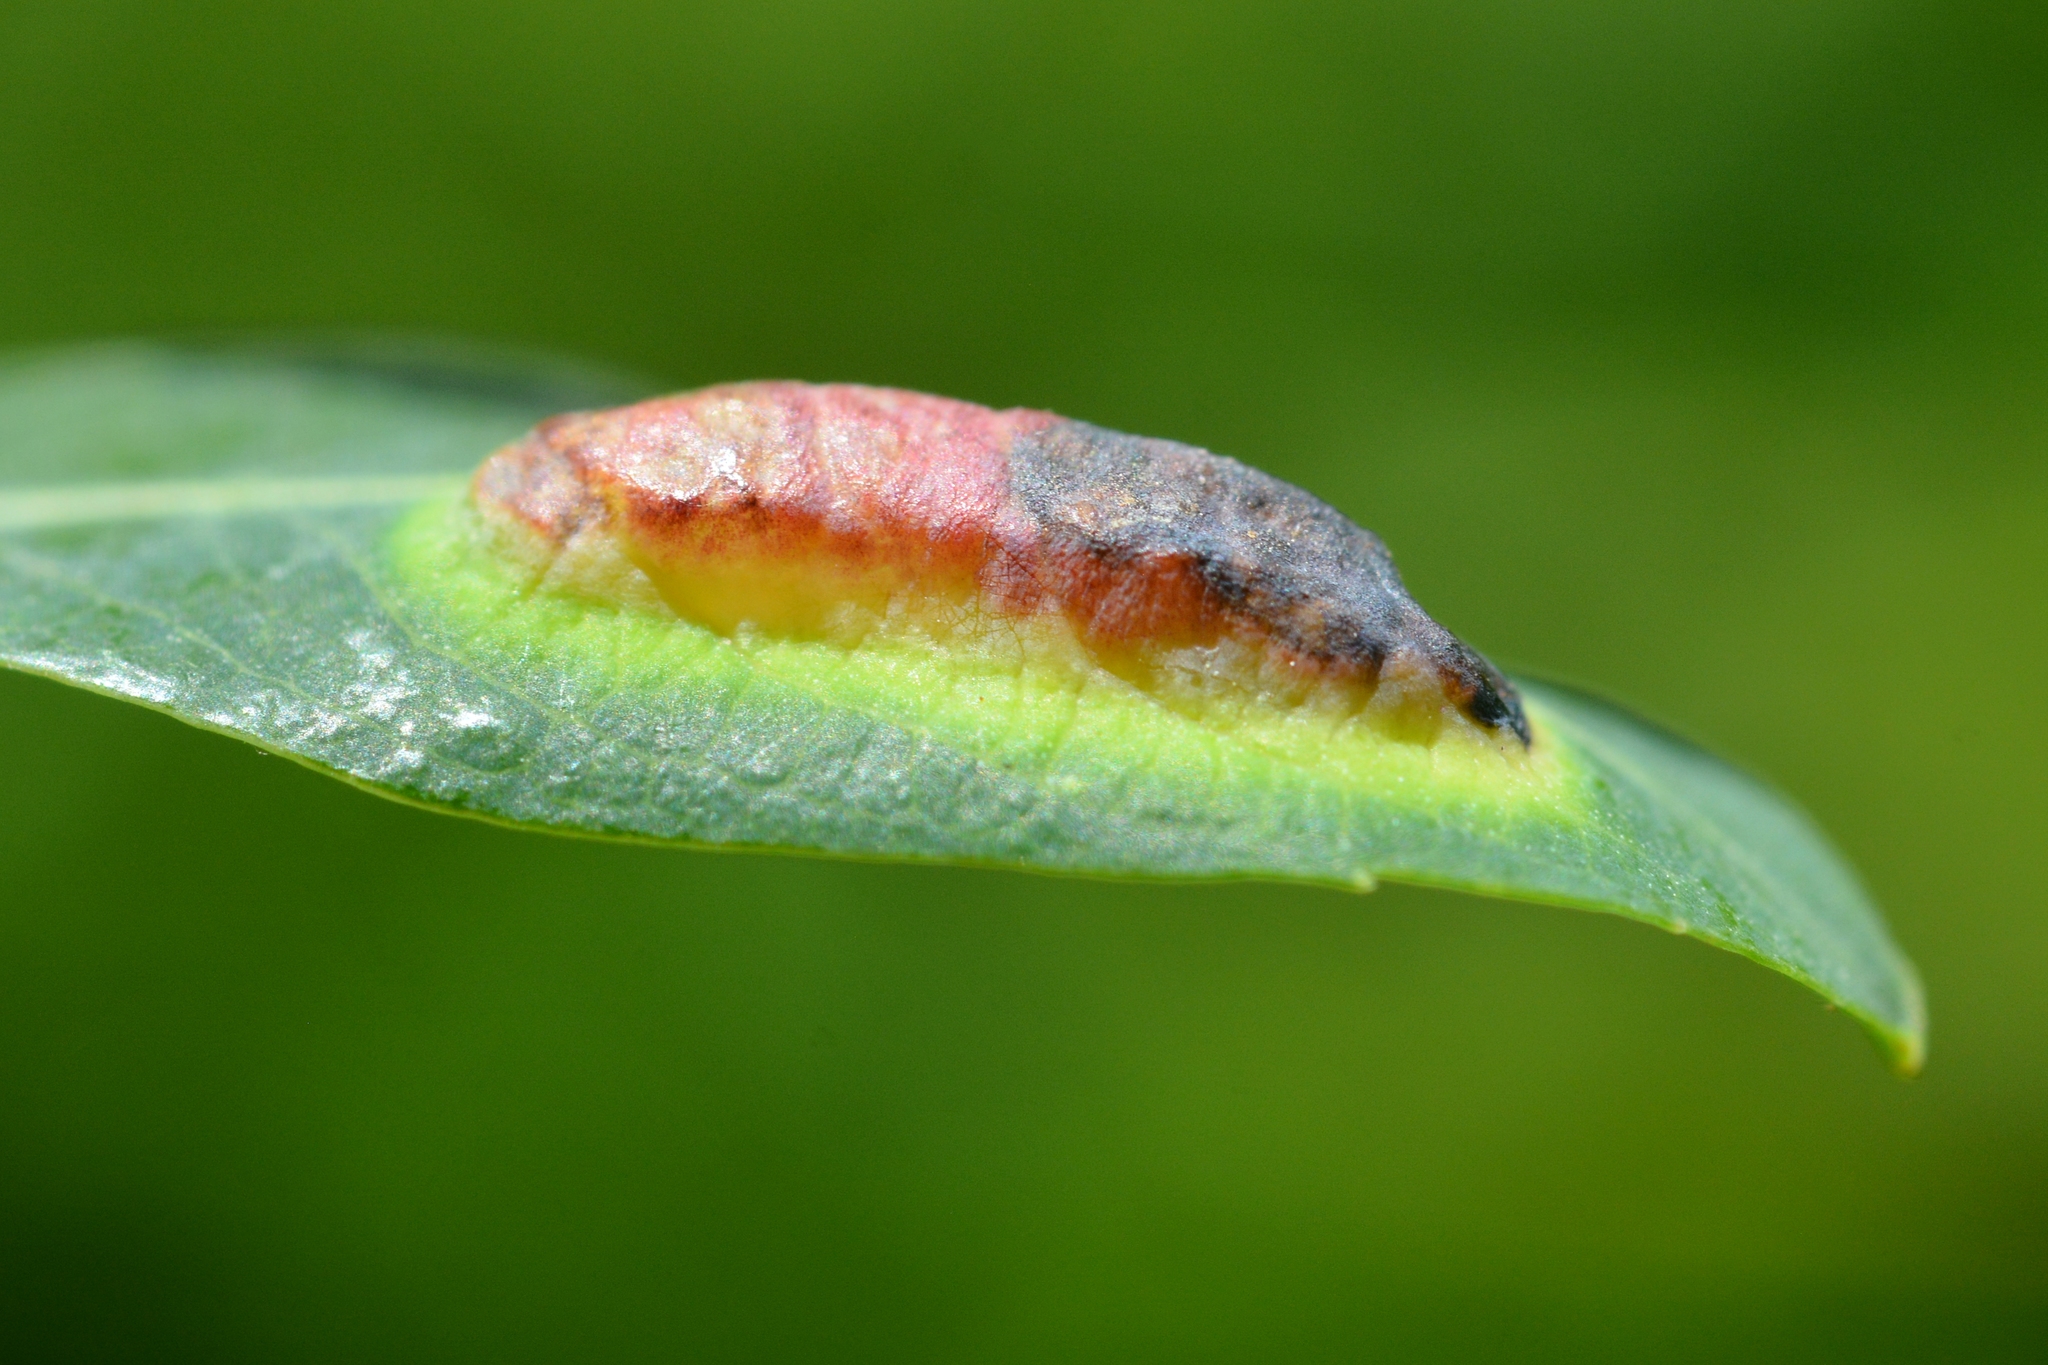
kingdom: Animalia
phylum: Arthropoda
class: Insecta
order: Hymenoptera
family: Tenthredinidae
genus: Pontania
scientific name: Pontania virilis
